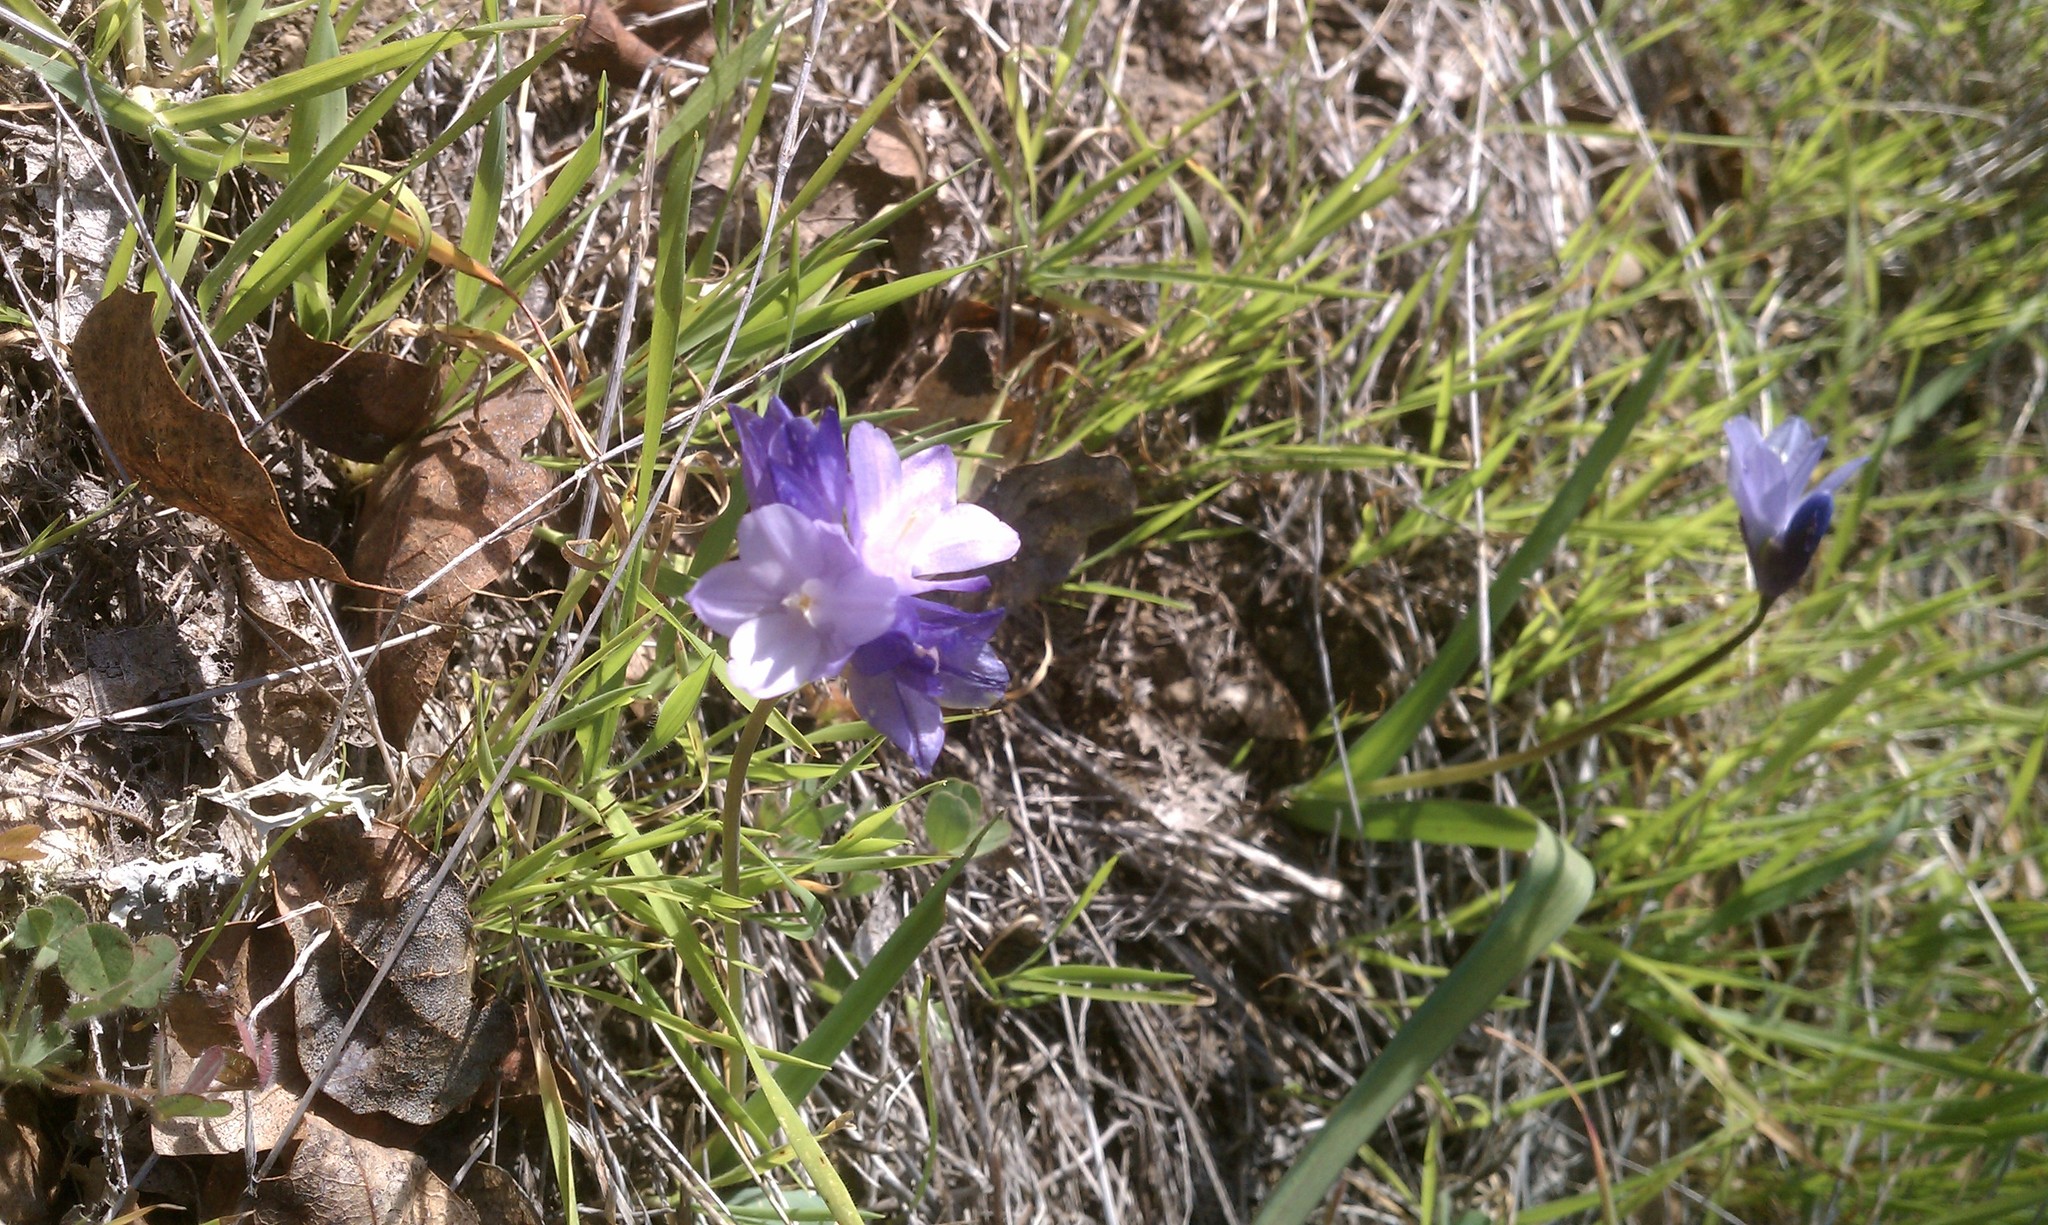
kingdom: Plantae
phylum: Tracheophyta
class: Liliopsida
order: Asparagales
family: Asparagaceae
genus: Dipterostemon
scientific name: Dipterostemon capitatus
